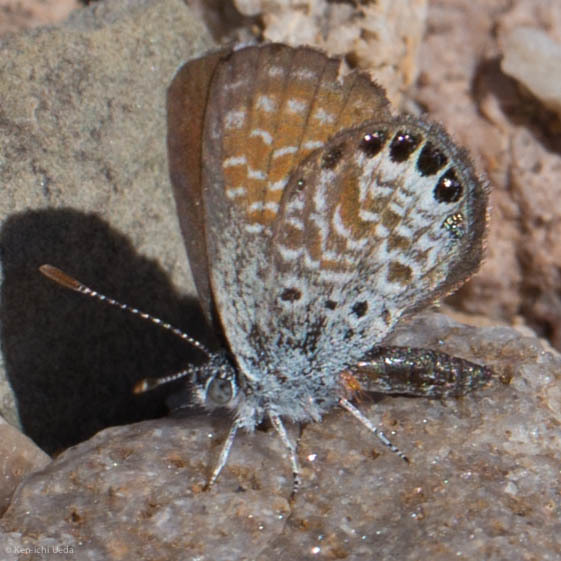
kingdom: Animalia
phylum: Arthropoda
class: Insecta
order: Lepidoptera
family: Lycaenidae
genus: Brephidium
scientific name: Brephidium exilis
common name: Pygmy blue
